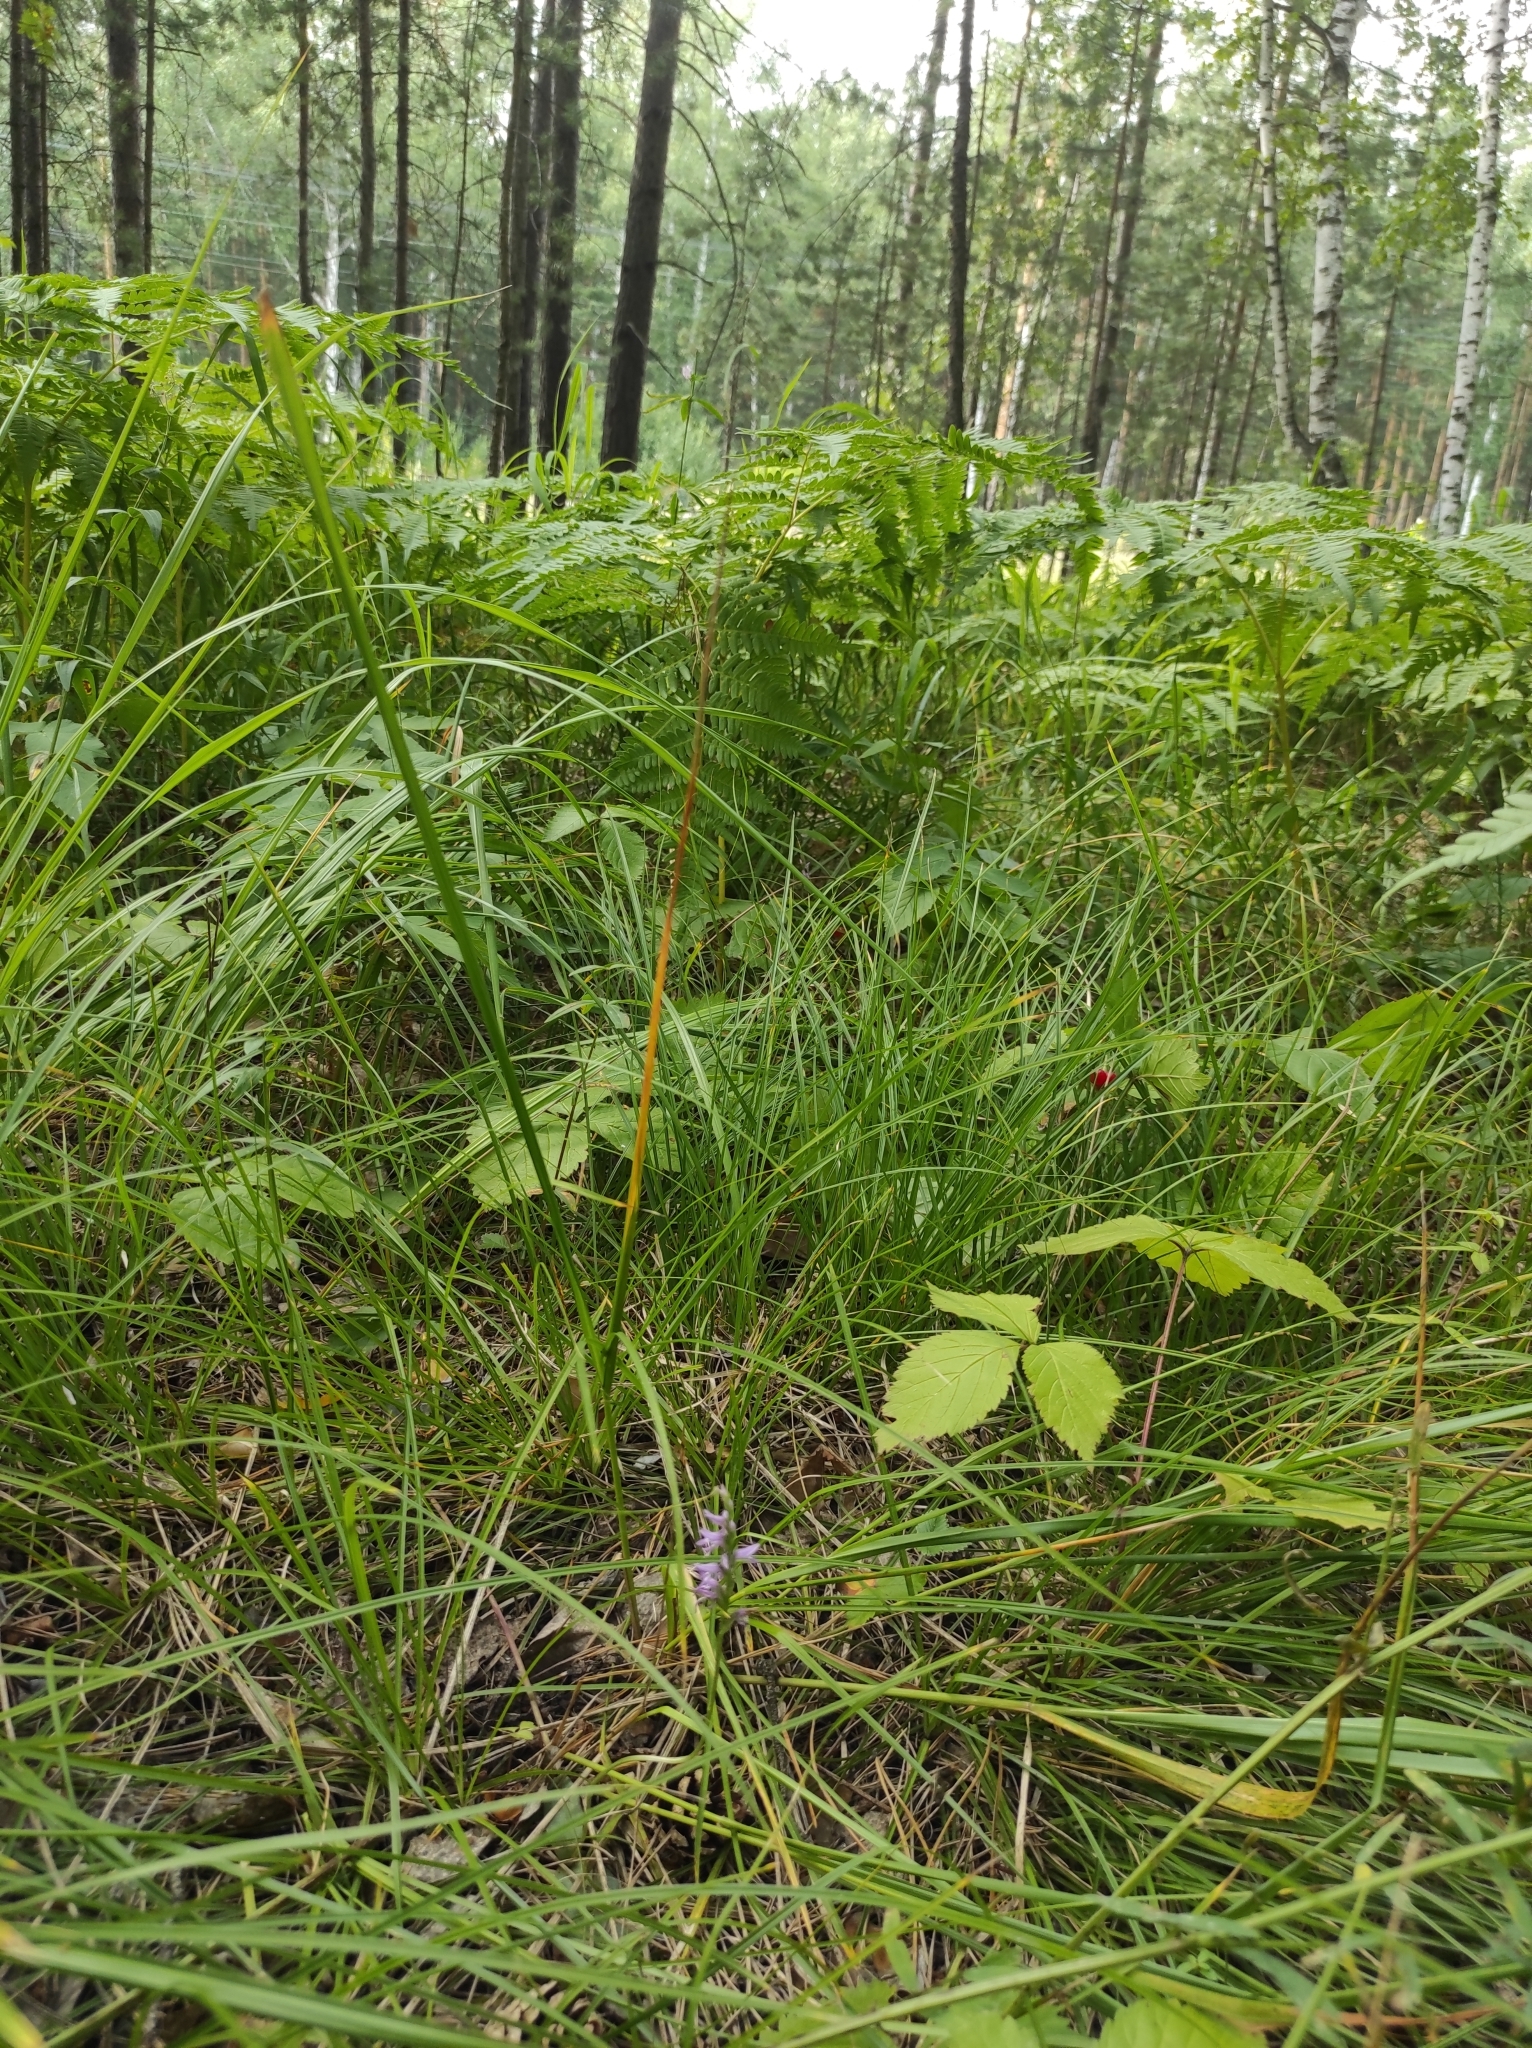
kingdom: Plantae
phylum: Tracheophyta
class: Liliopsida
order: Asparagales
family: Orchidaceae
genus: Hemipilia
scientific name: Hemipilia cucullata
